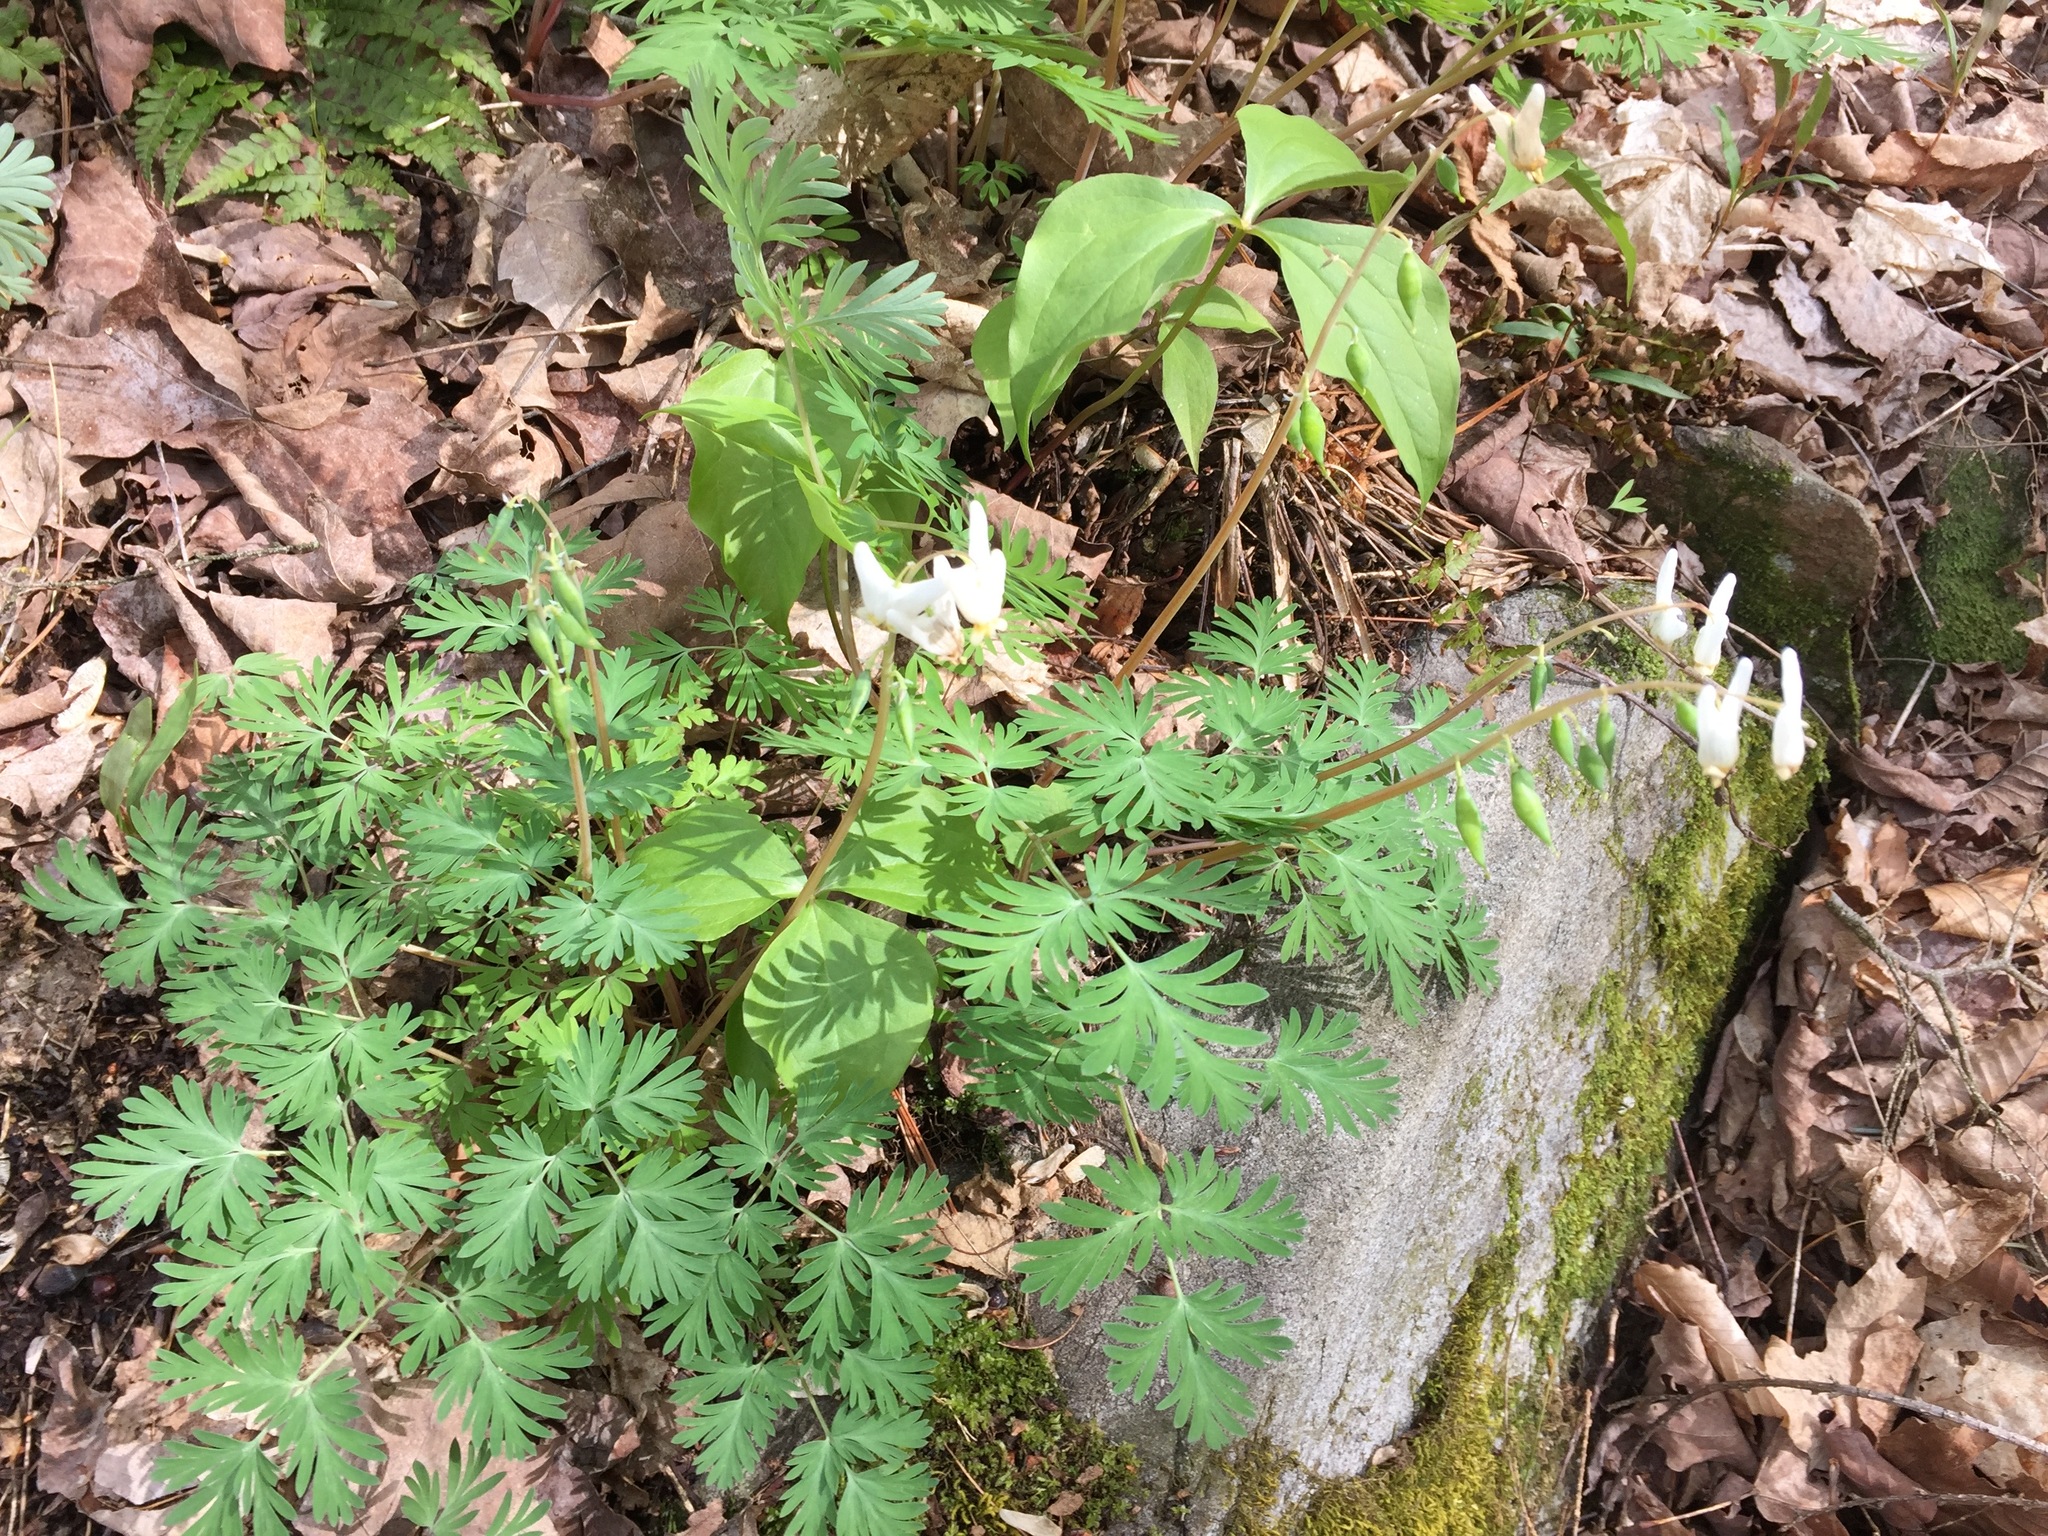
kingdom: Plantae
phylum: Tracheophyta
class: Magnoliopsida
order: Ranunculales
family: Papaveraceae
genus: Dicentra
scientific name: Dicentra cucullaria
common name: Dutchman's breeches
